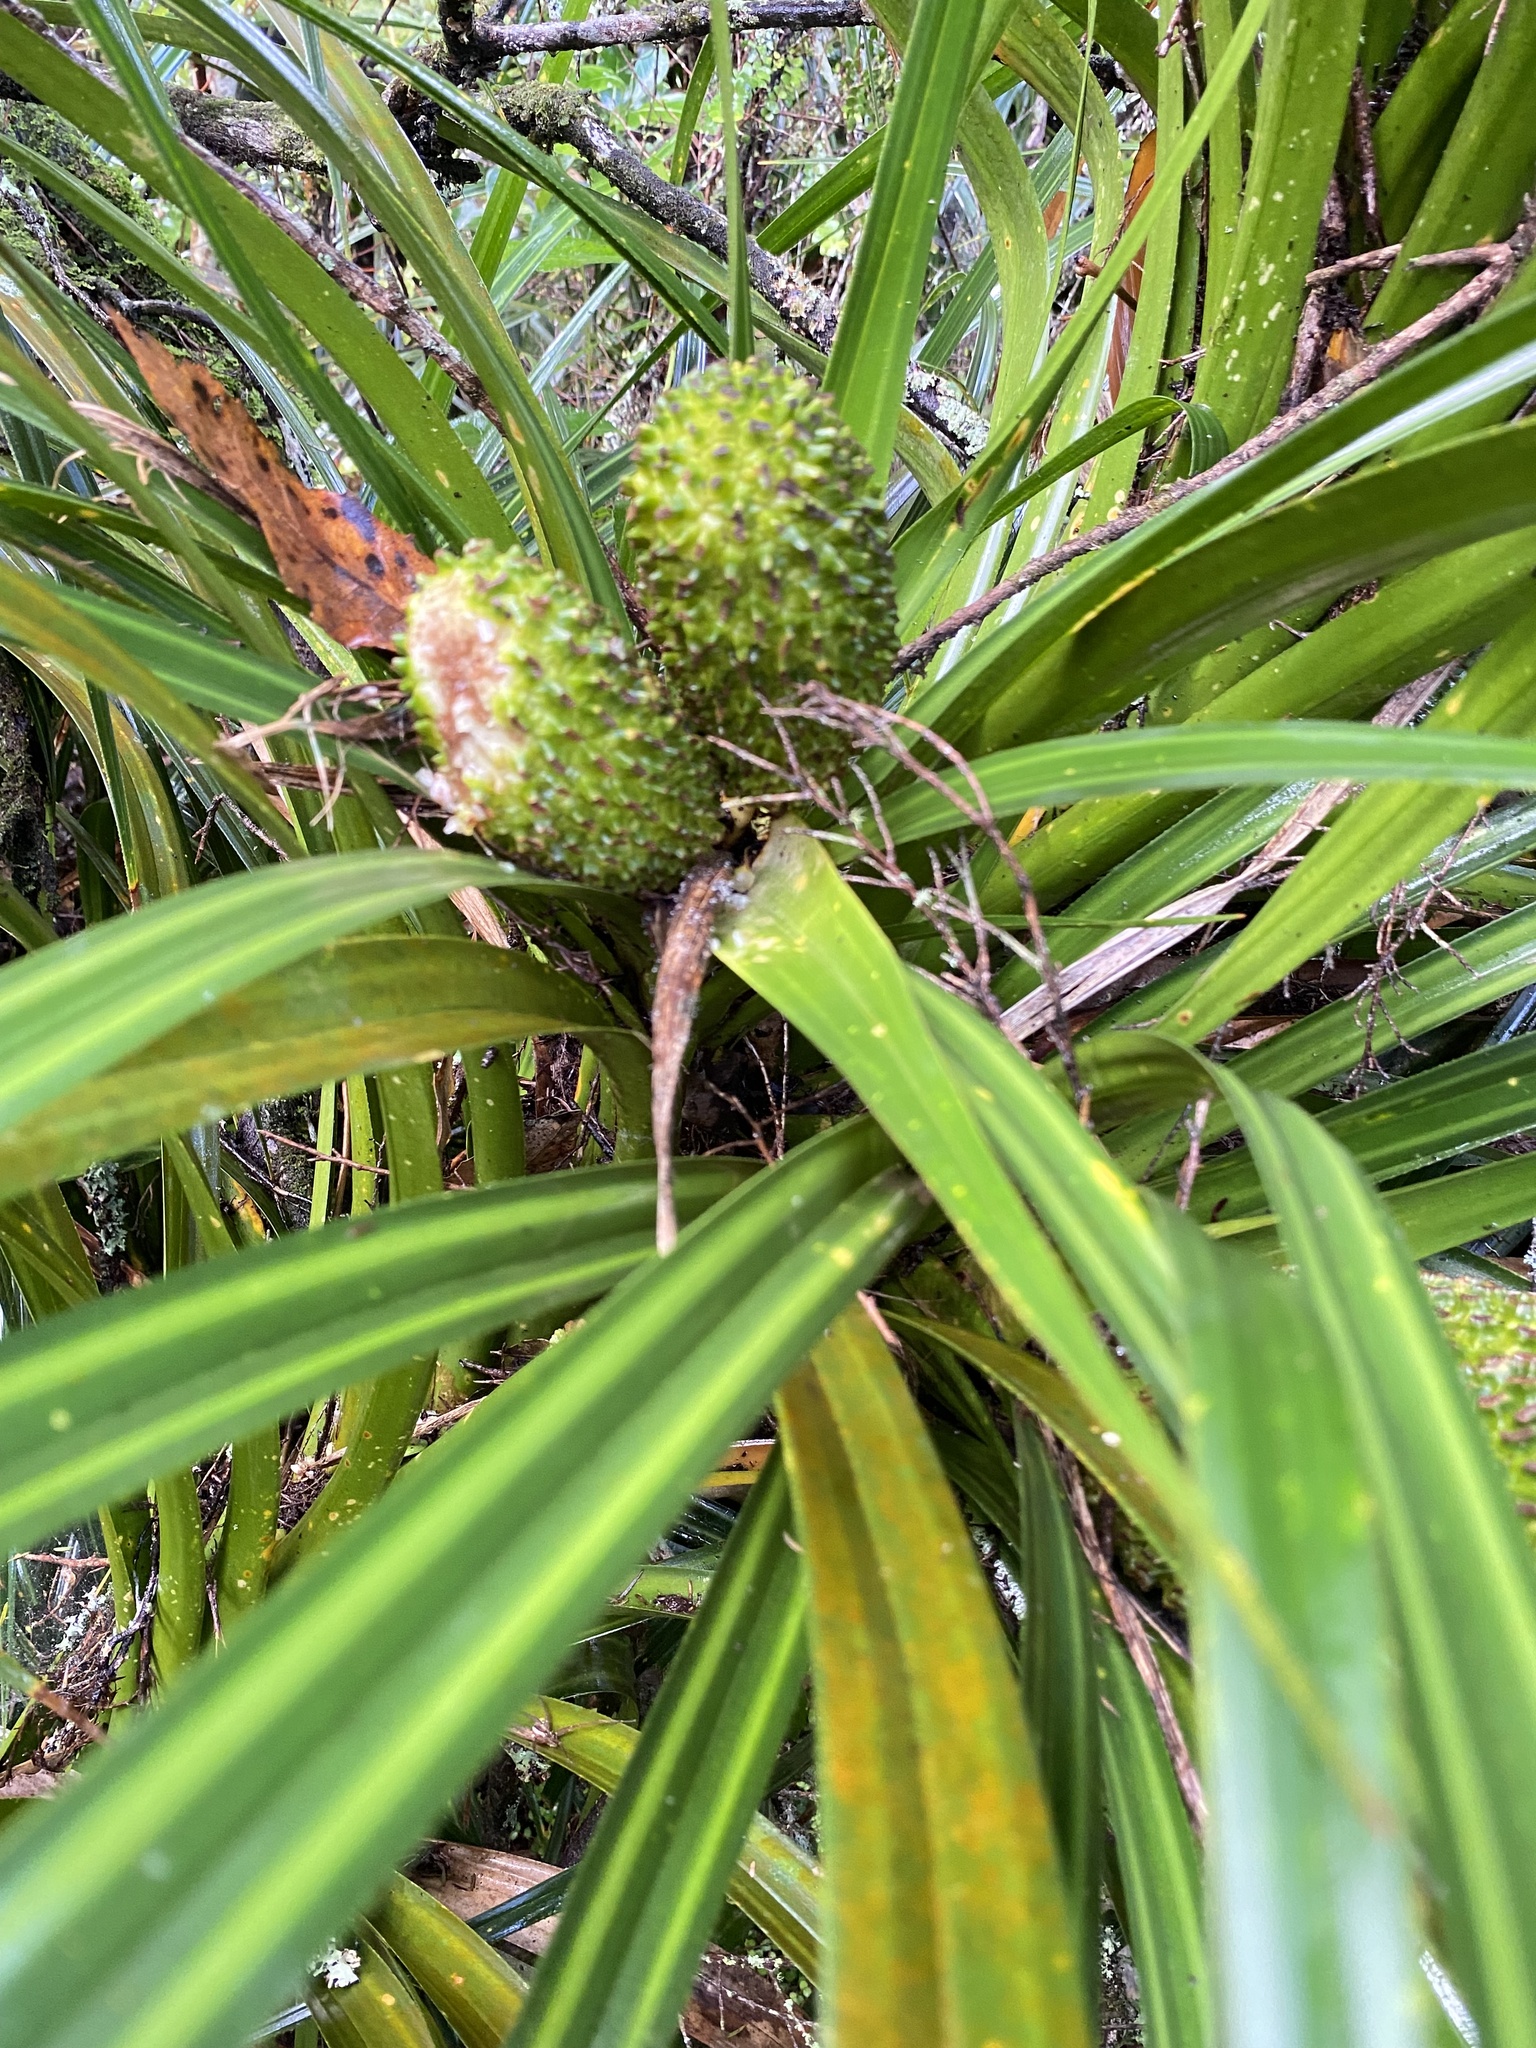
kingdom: Plantae
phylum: Tracheophyta
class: Liliopsida
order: Pandanales
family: Pandanaceae
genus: Freycinetia
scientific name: Freycinetia banksii
